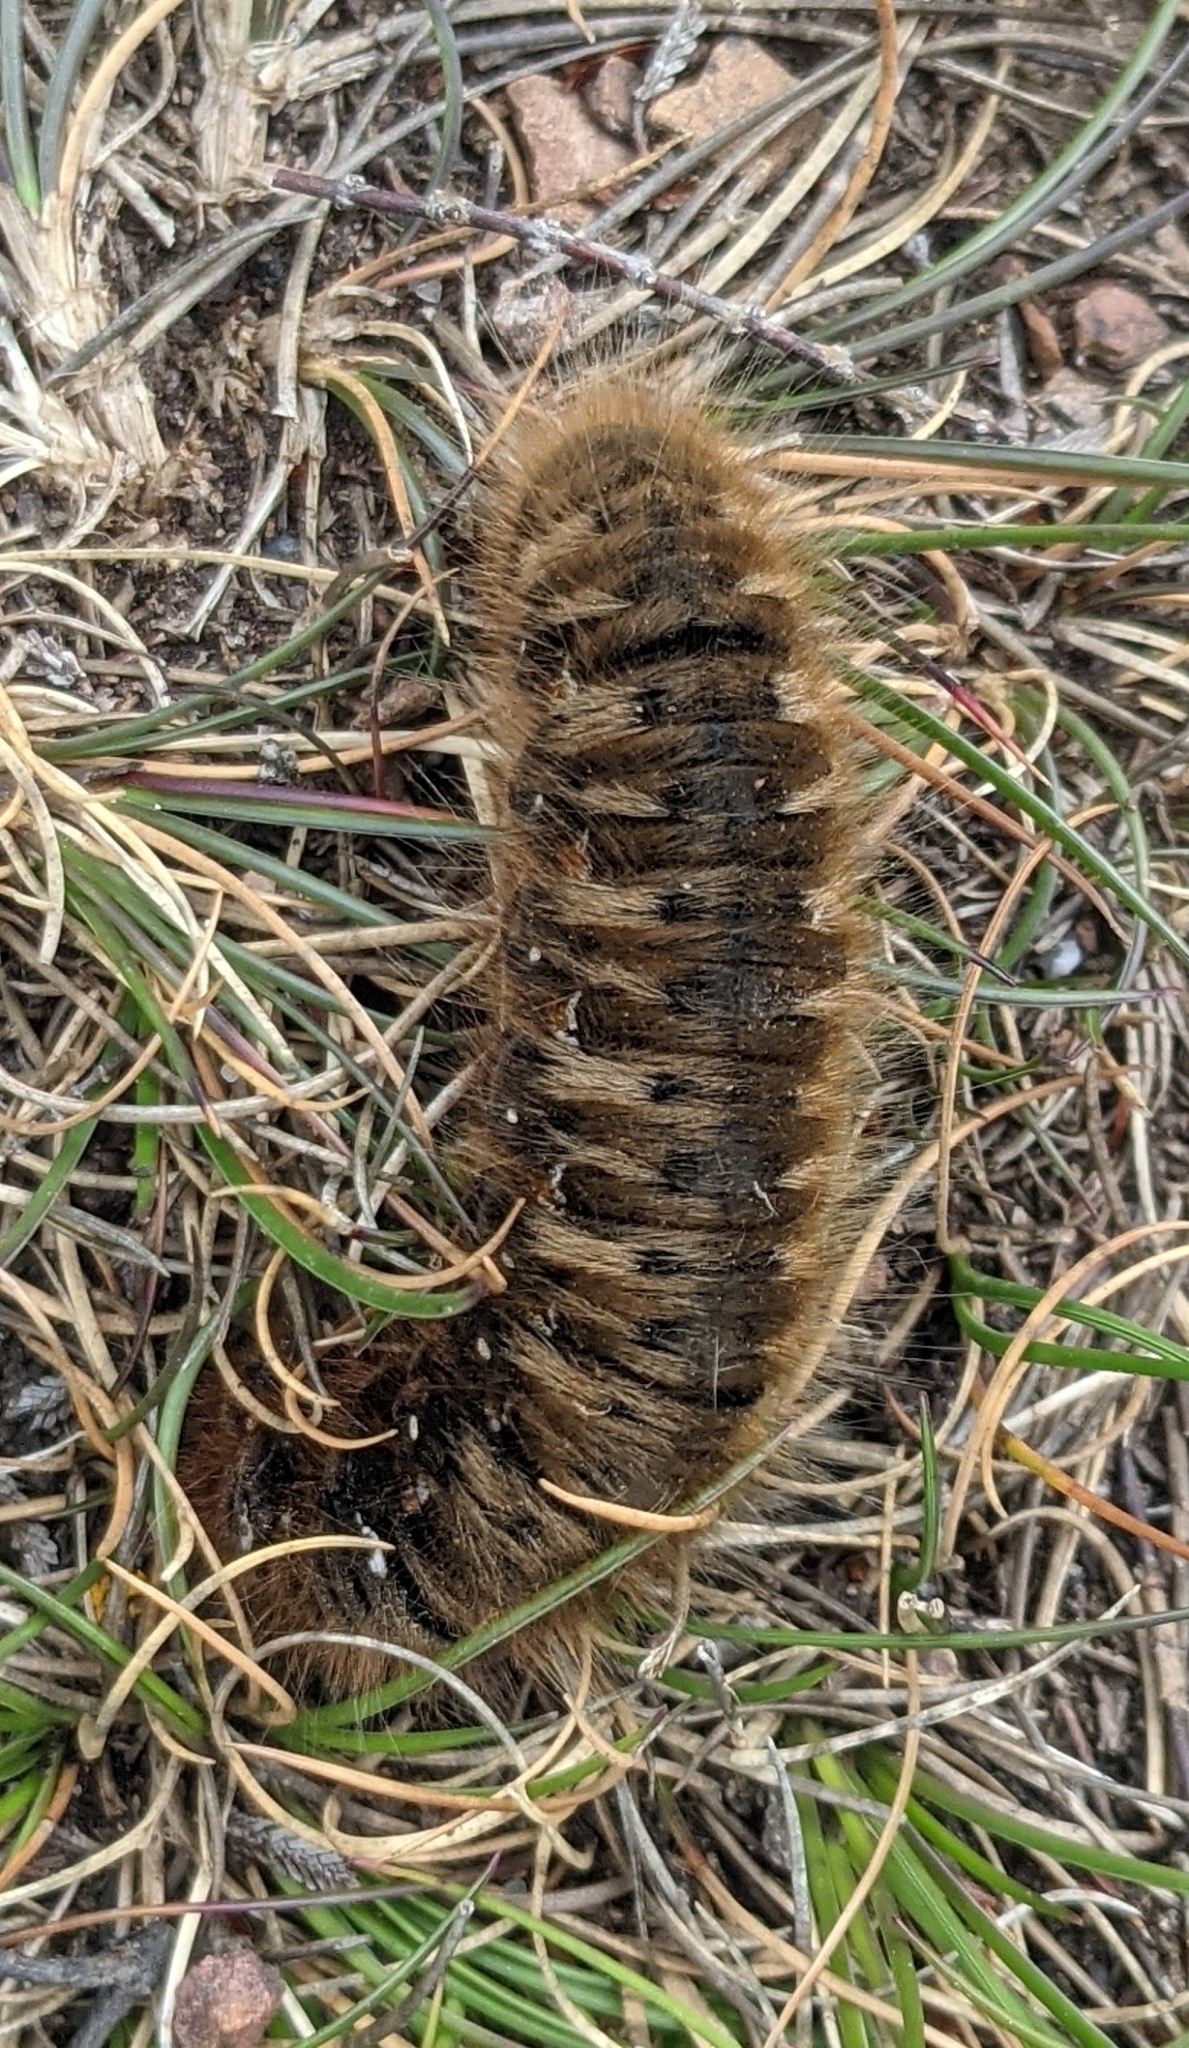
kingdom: Animalia
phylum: Arthropoda
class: Insecta
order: Lepidoptera
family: Lasiocampidae
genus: Lasiocampa
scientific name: Lasiocampa quercus
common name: Oak eggar
